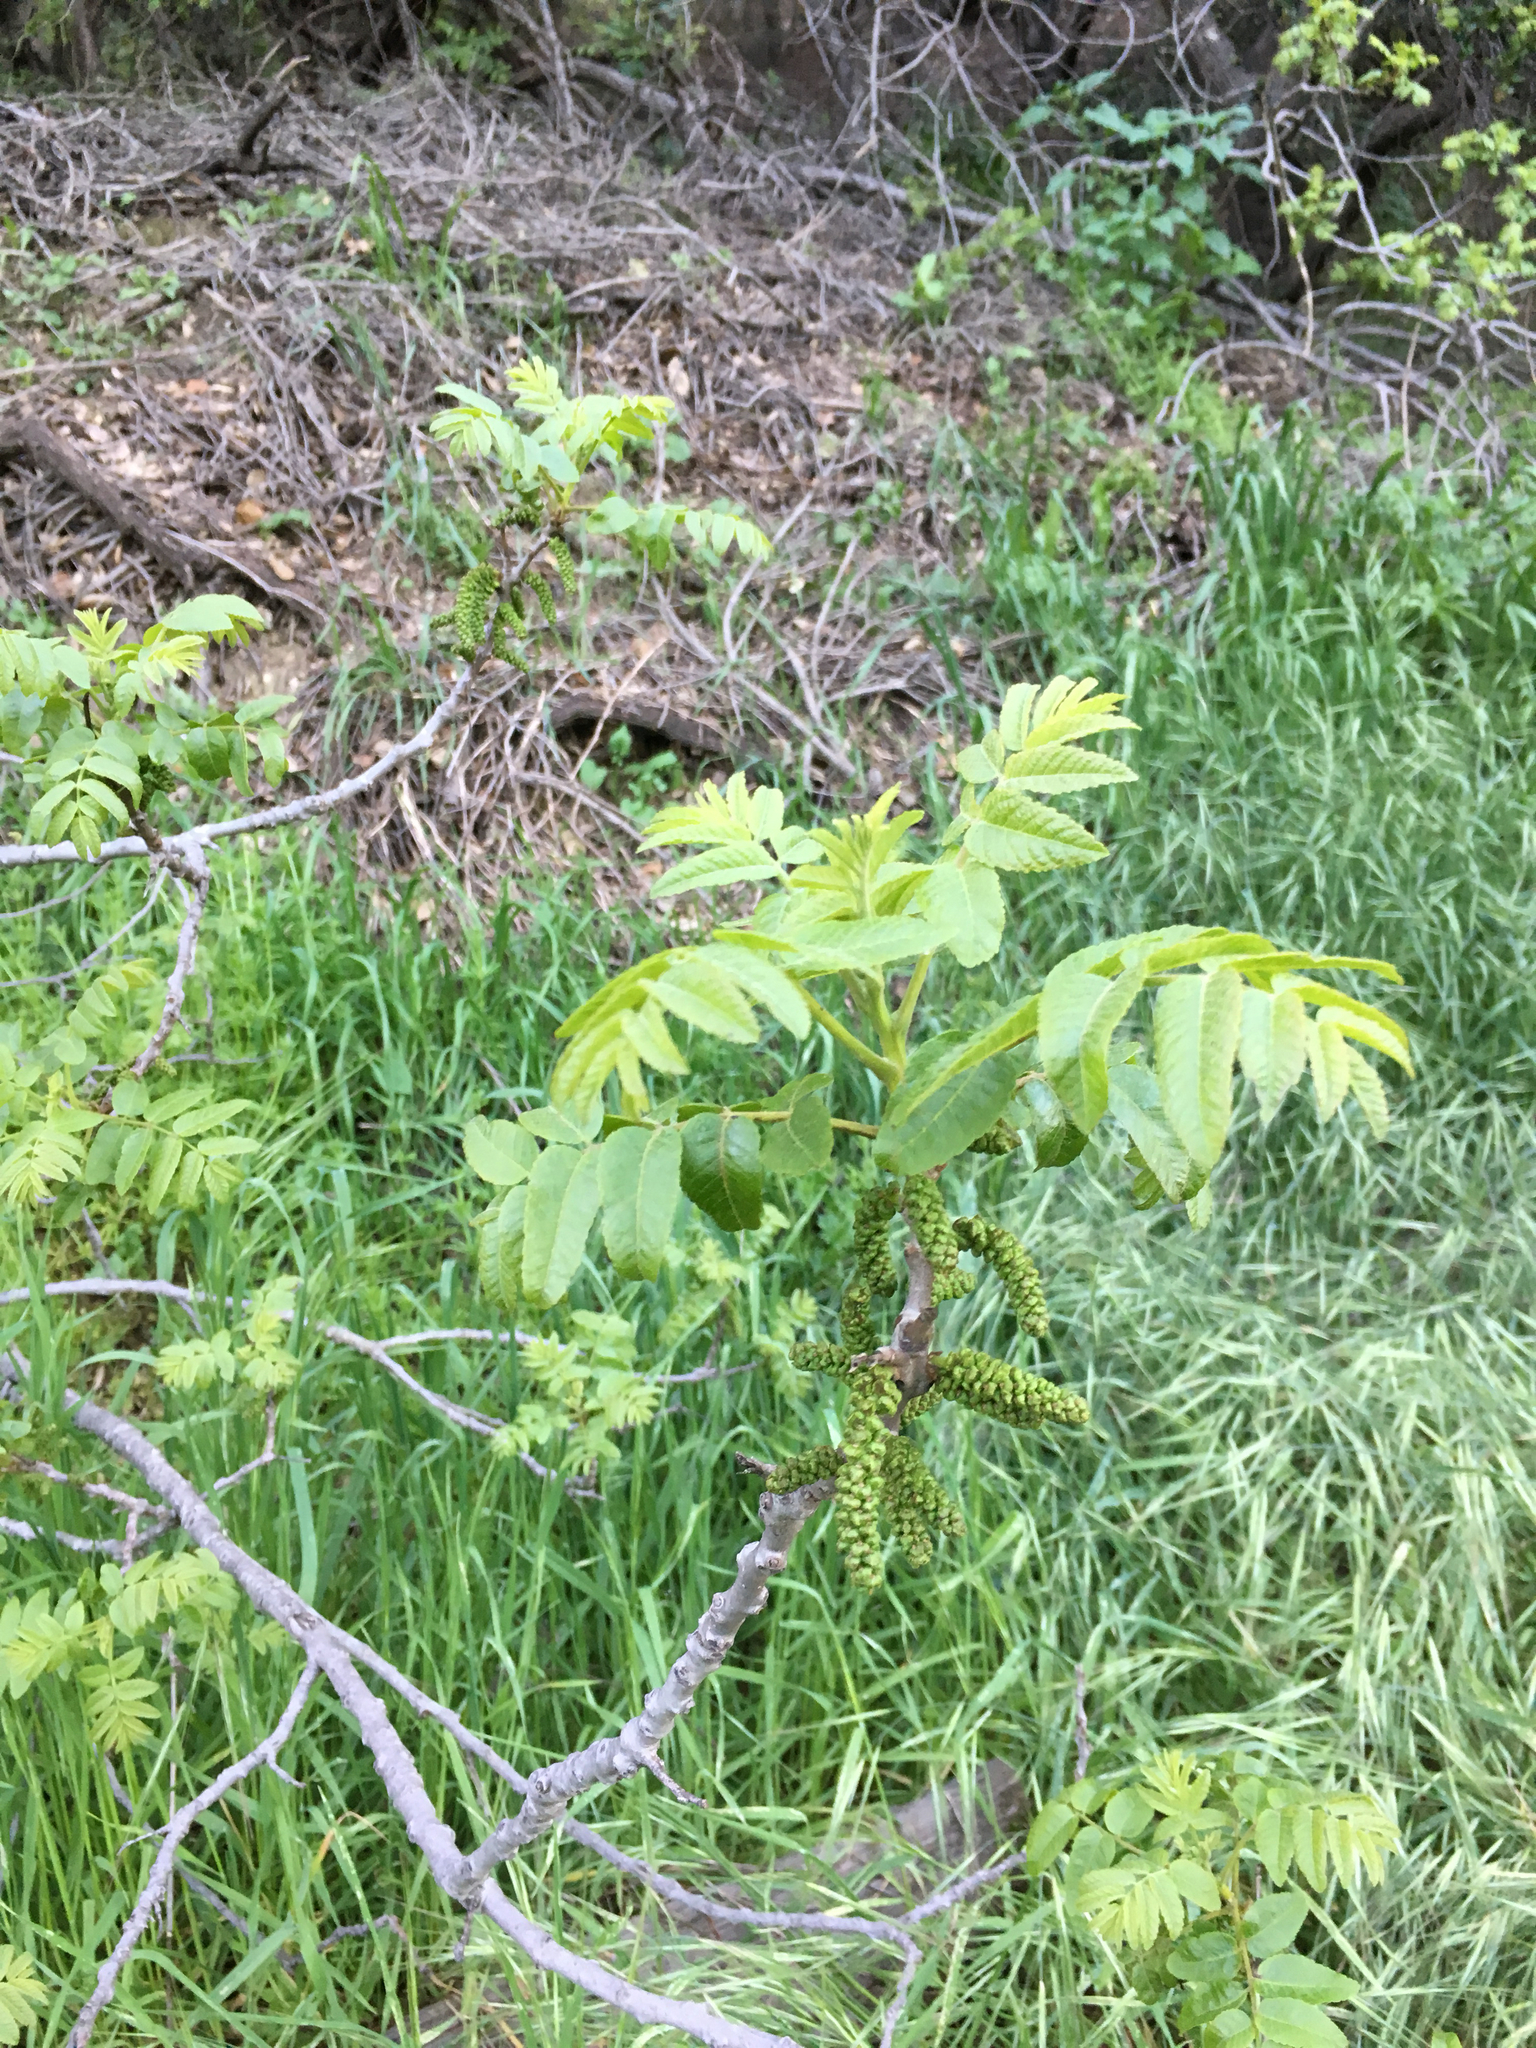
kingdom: Plantae
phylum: Tracheophyta
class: Magnoliopsida
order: Fagales
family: Juglandaceae
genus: Juglans
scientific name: Juglans californica
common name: Southern california black walnut
